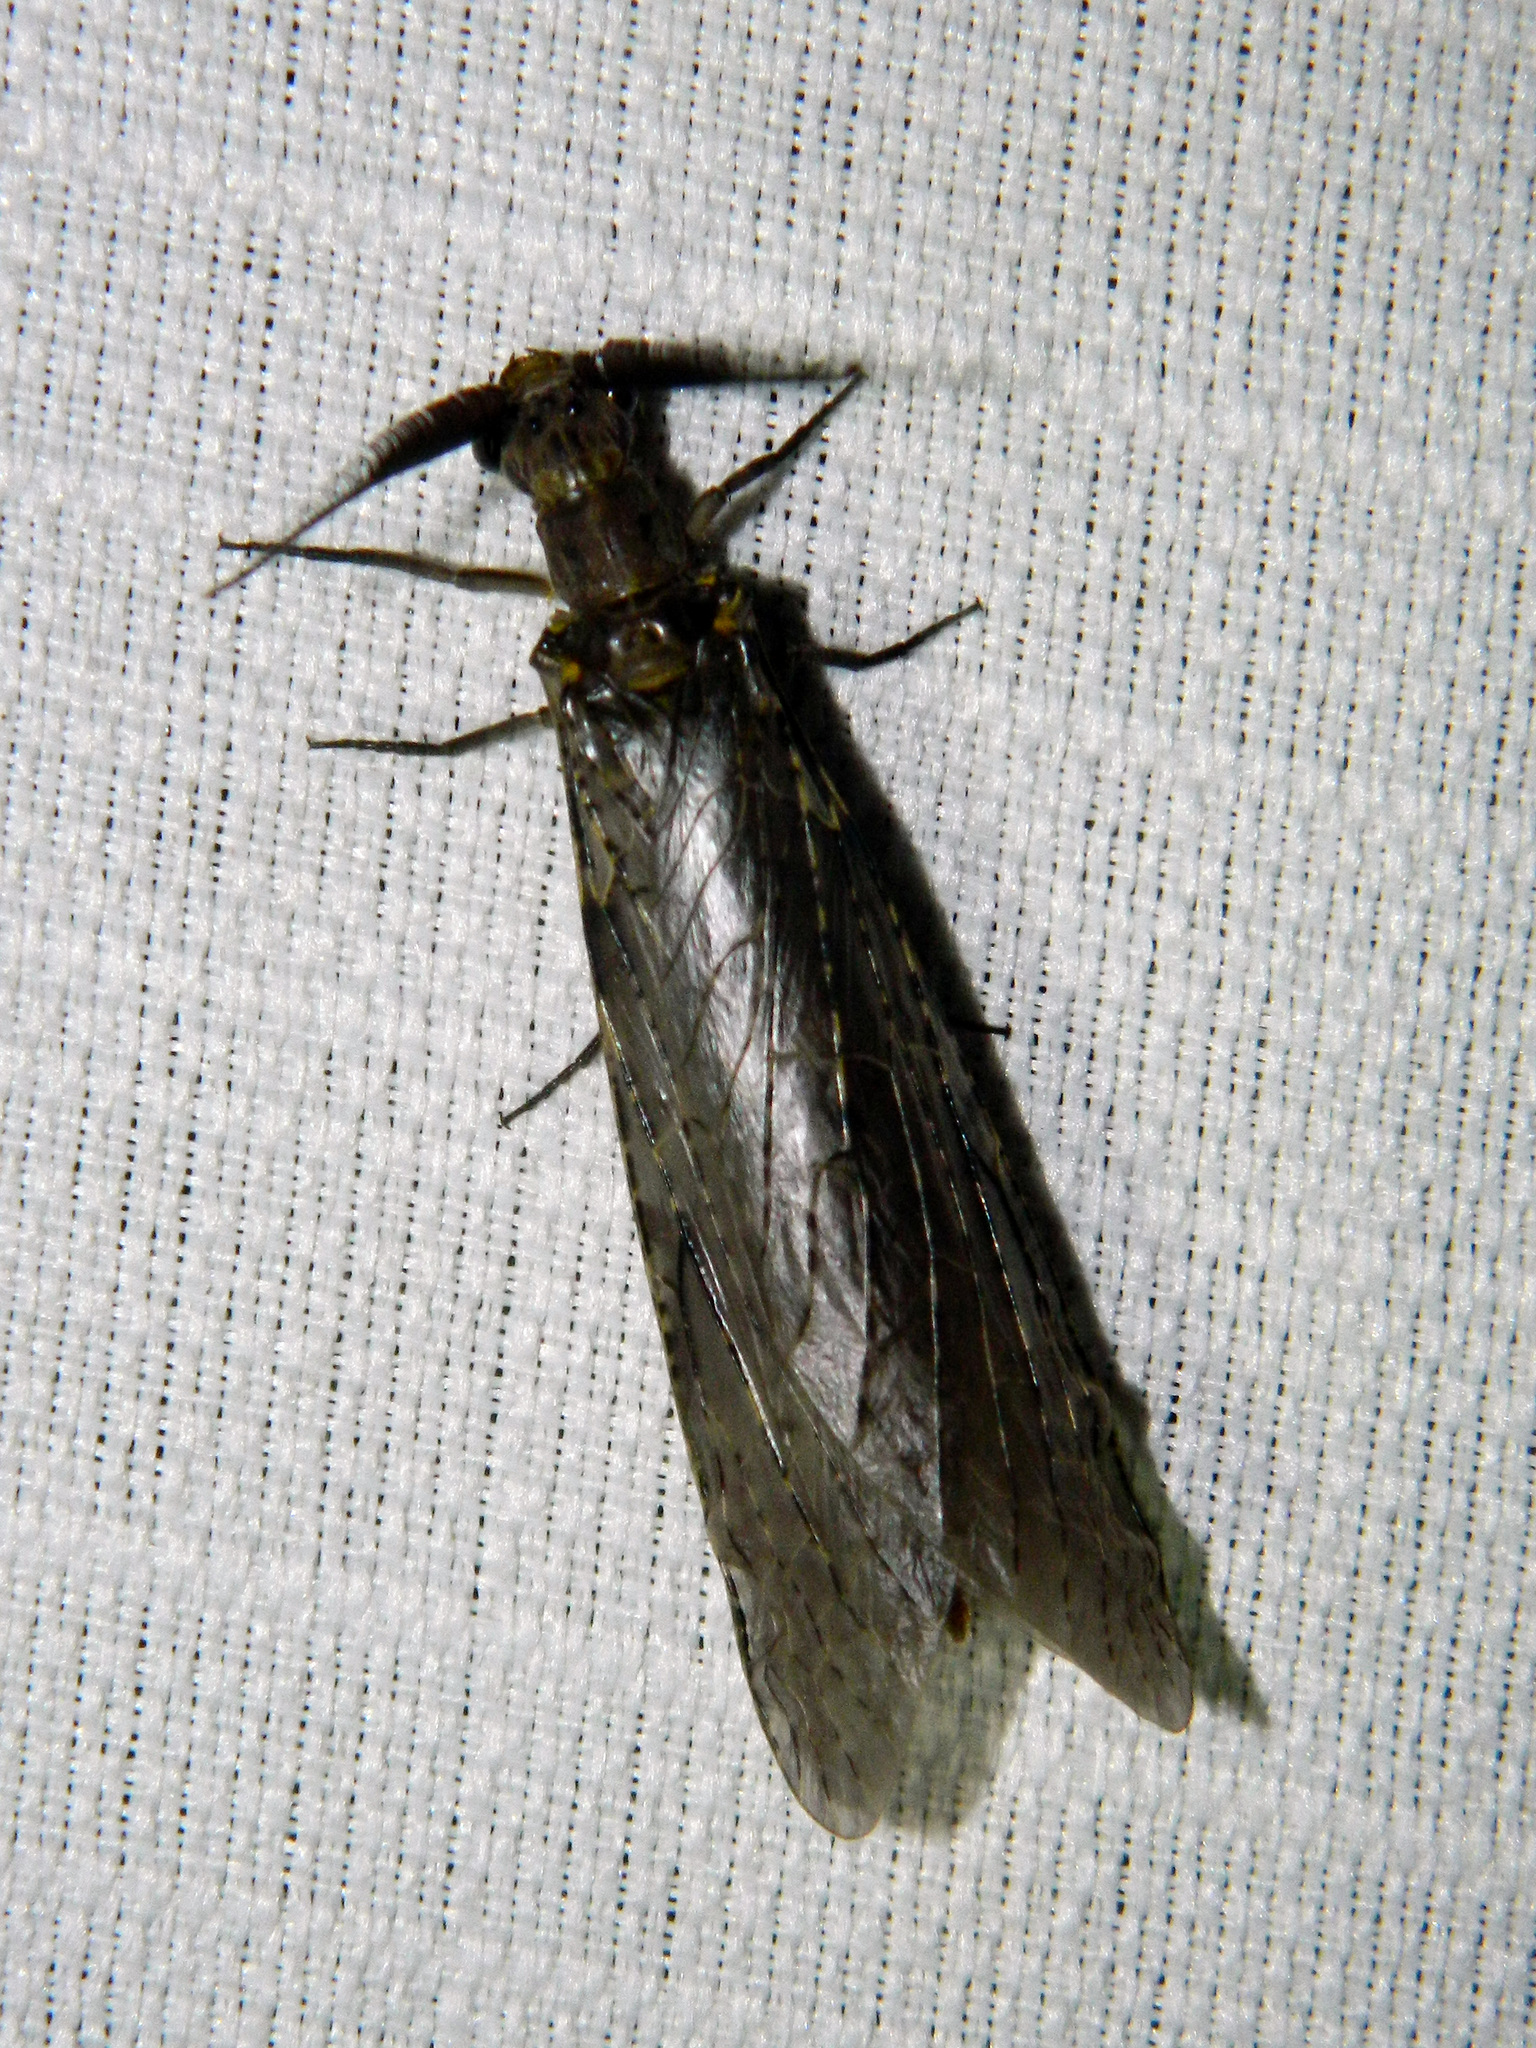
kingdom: Animalia
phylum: Arthropoda
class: Insecta
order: Megaloptera
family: Corydalidae
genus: Chauliodes
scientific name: Chauliodes rastricornis
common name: Spring fishfly
